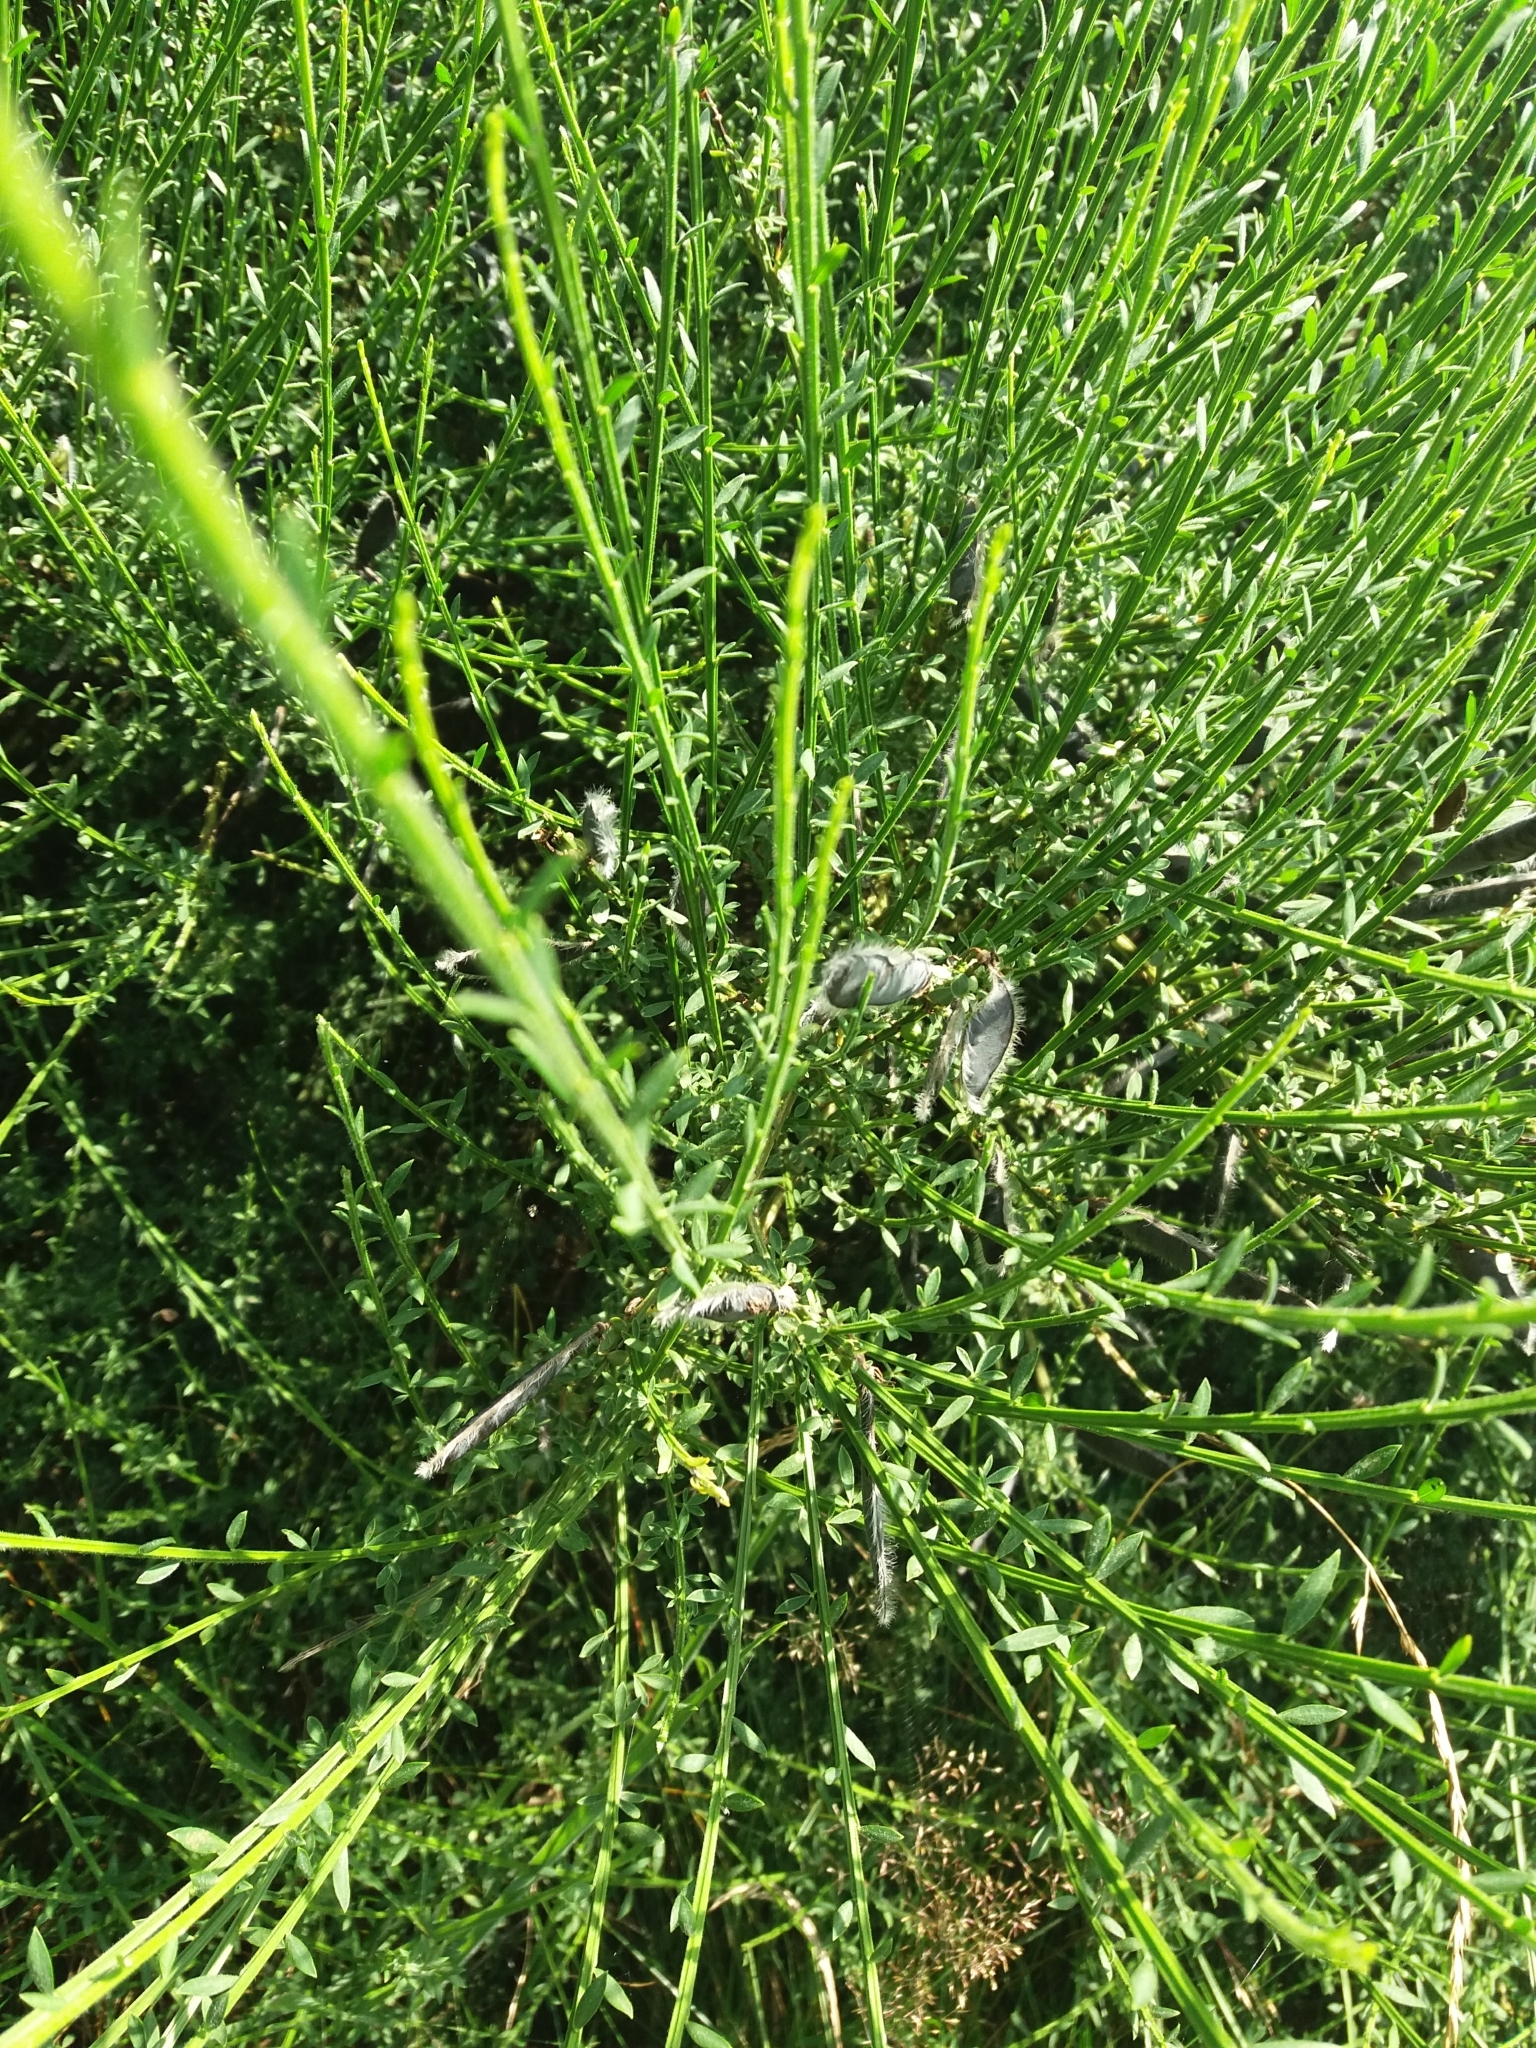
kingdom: Plantae
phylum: Tracheophyta
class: Magnoliopsida
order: Fabales
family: Fabaceae
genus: Cytisus
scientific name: Cytisus scoparius
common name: Scotch broom
